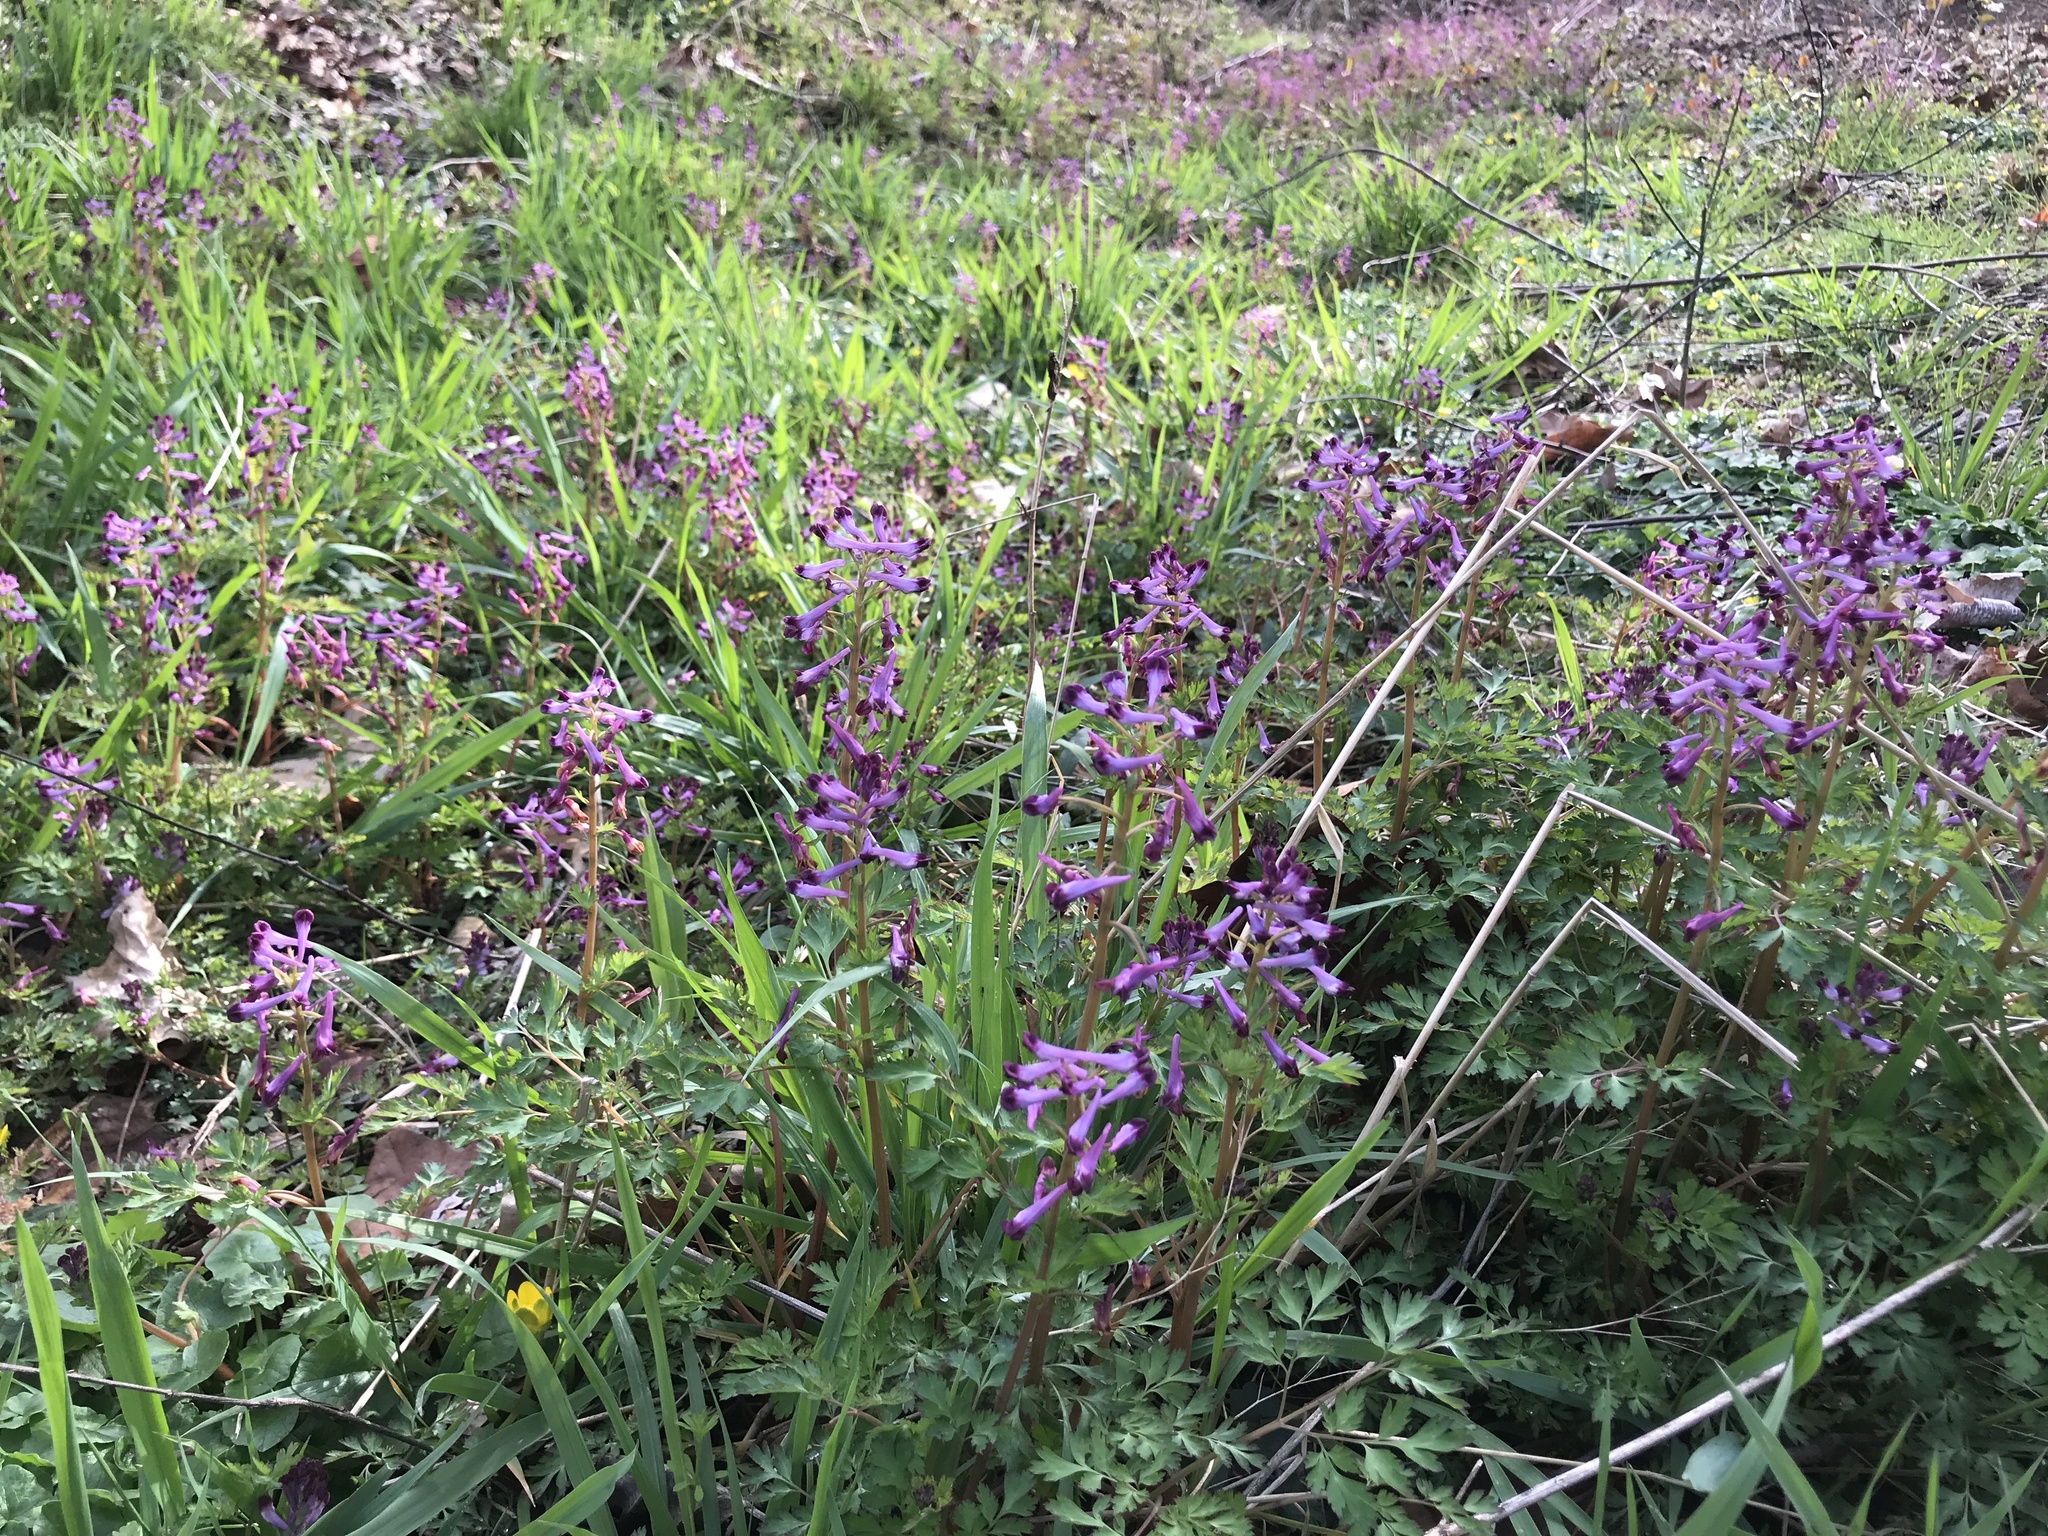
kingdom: Plantae
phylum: Tracheophyta
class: Magnoliopsida
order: Ranunculales
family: Papaveraceae
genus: Corydalis
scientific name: Corydalis incisa
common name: Incised fumewort
